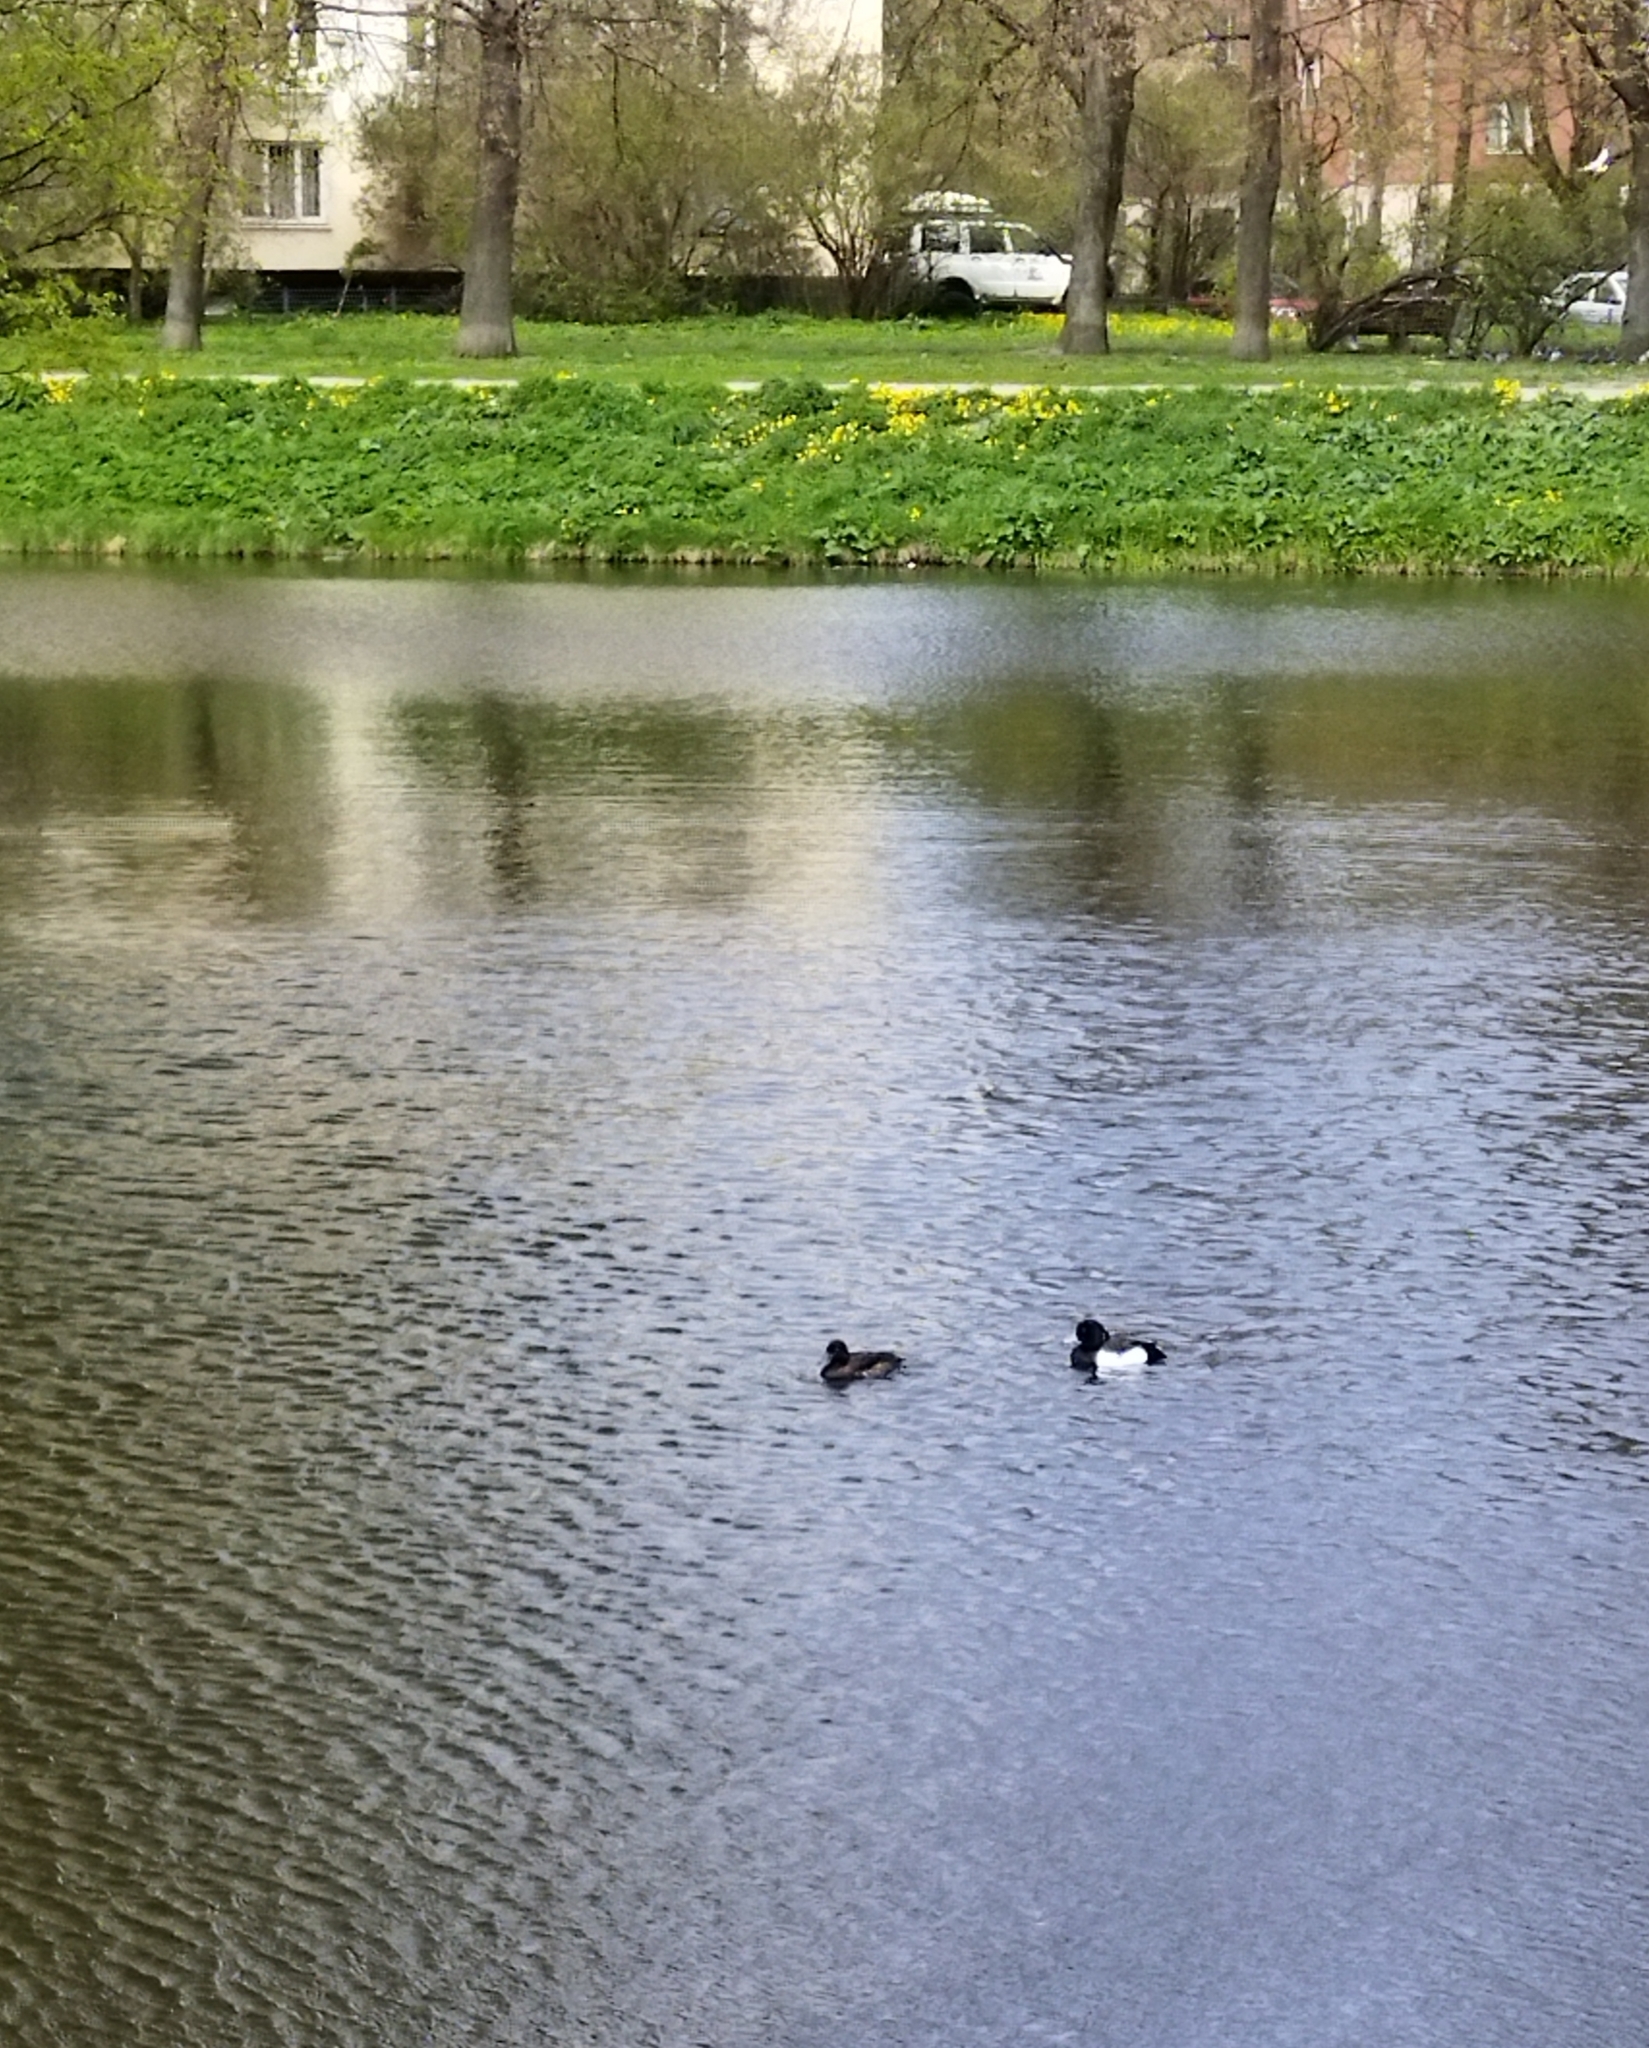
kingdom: Animalia
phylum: Chordata
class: Aves
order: Anseriformes
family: Anatidae
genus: Aythya
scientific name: Aythya fuligula
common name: Tufted duck
